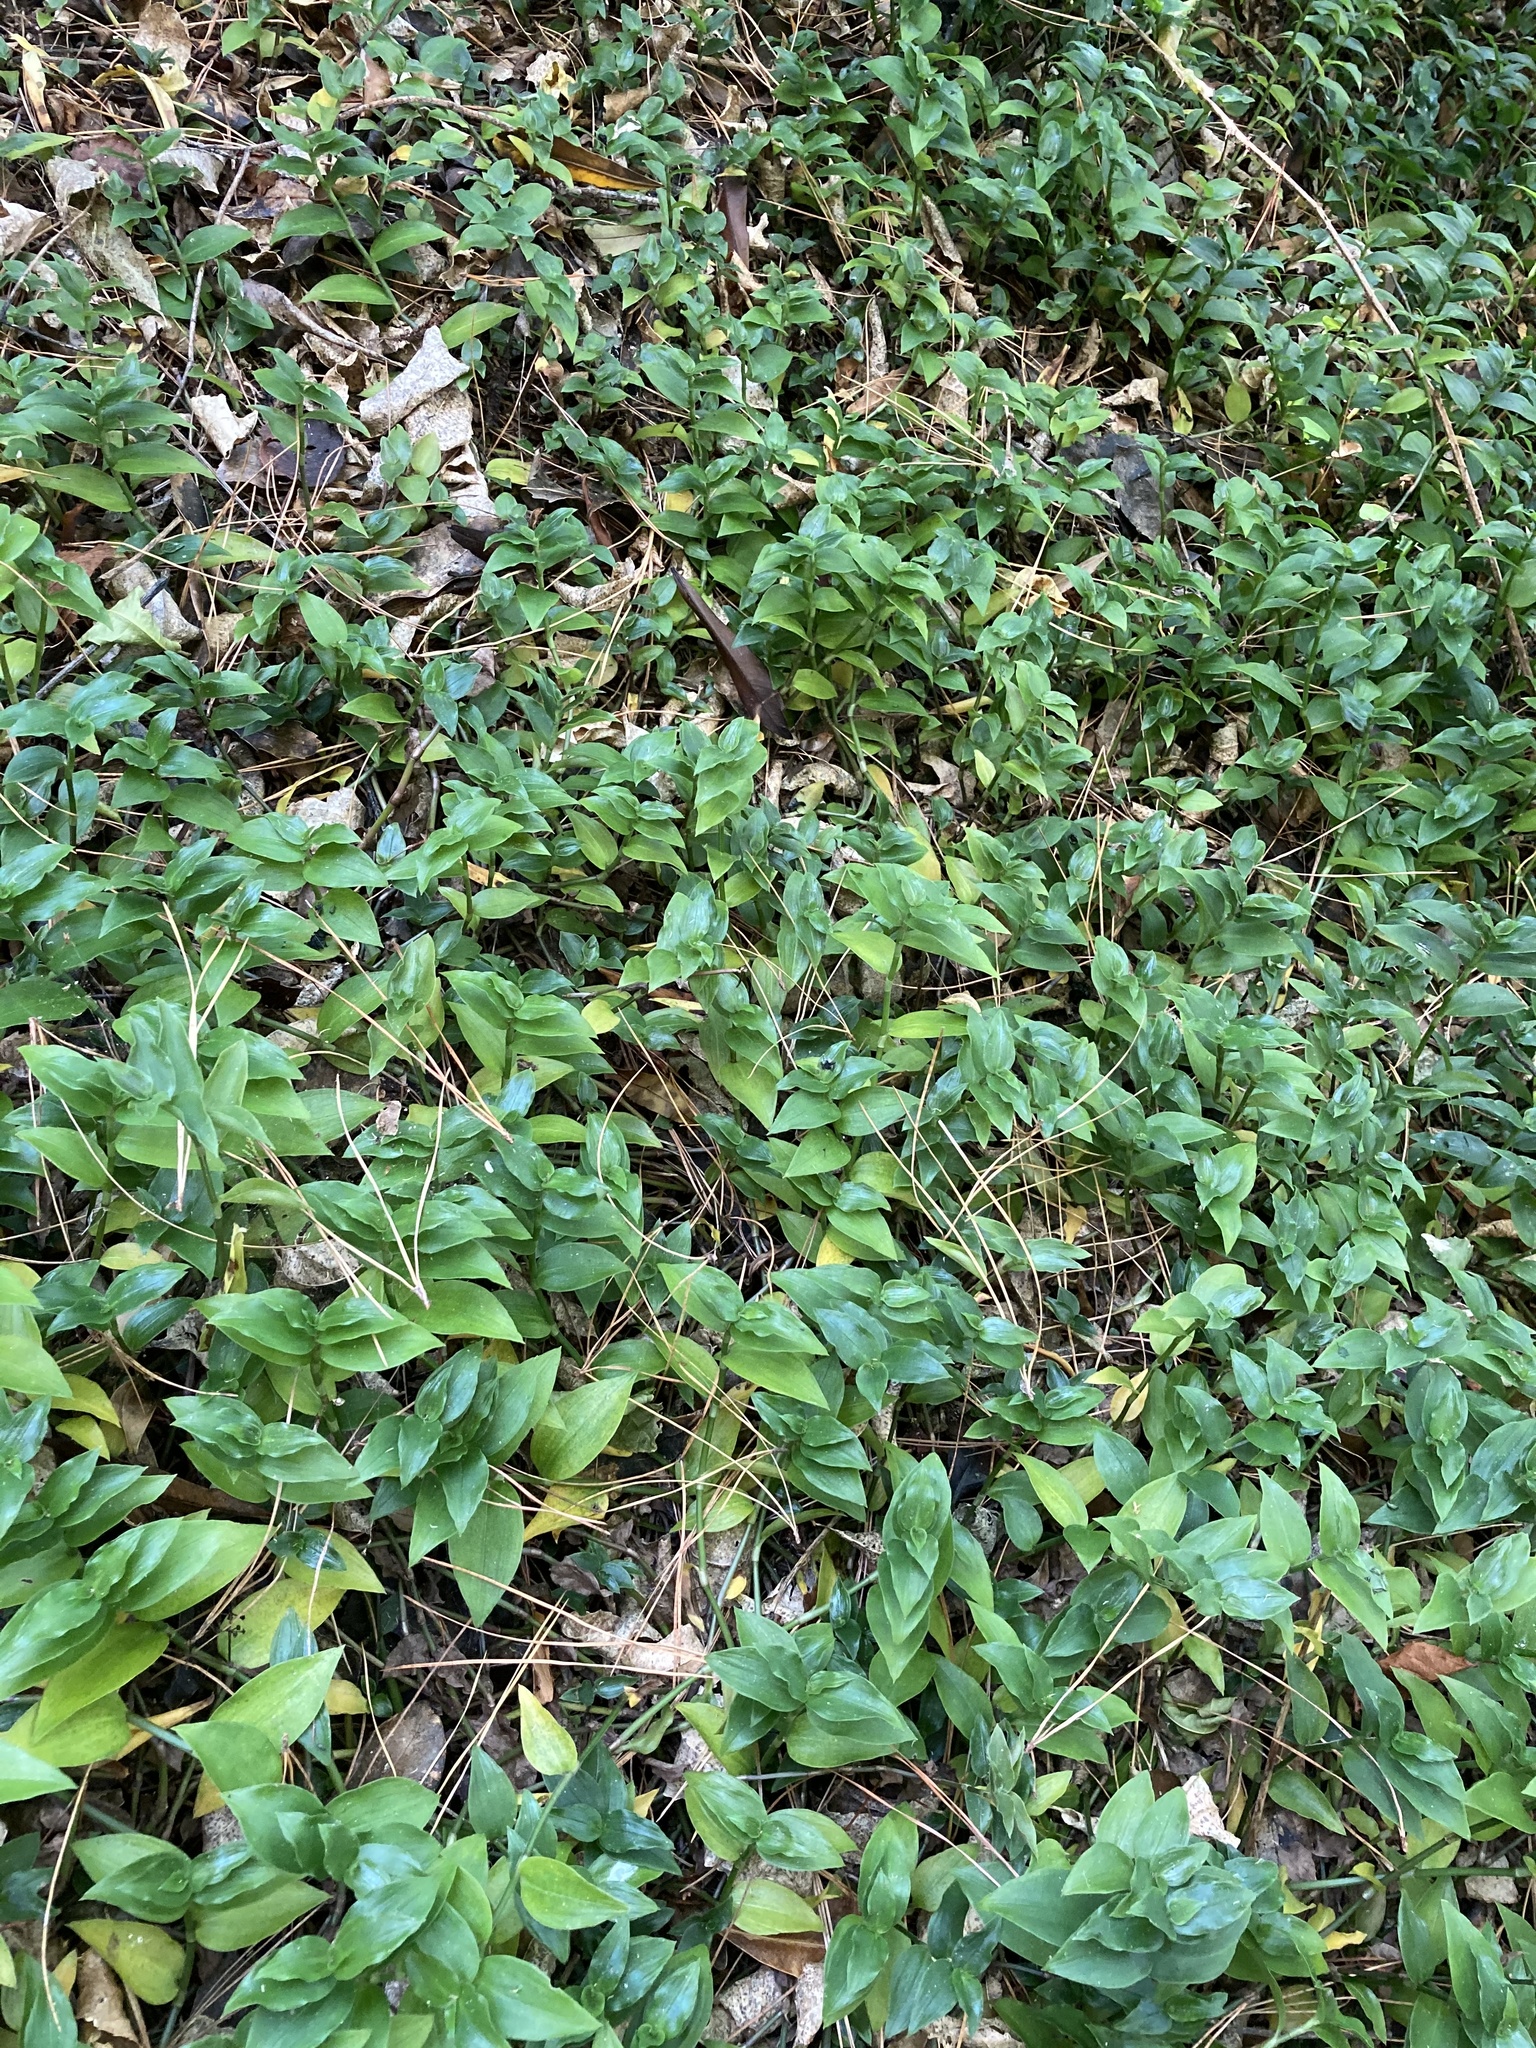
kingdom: Plantae
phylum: Tracheophyta
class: Liliopsida
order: Commelinales
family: Commelinaceae
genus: Tradescantia
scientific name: Tradescantia fluminensis
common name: Wandering-jew
